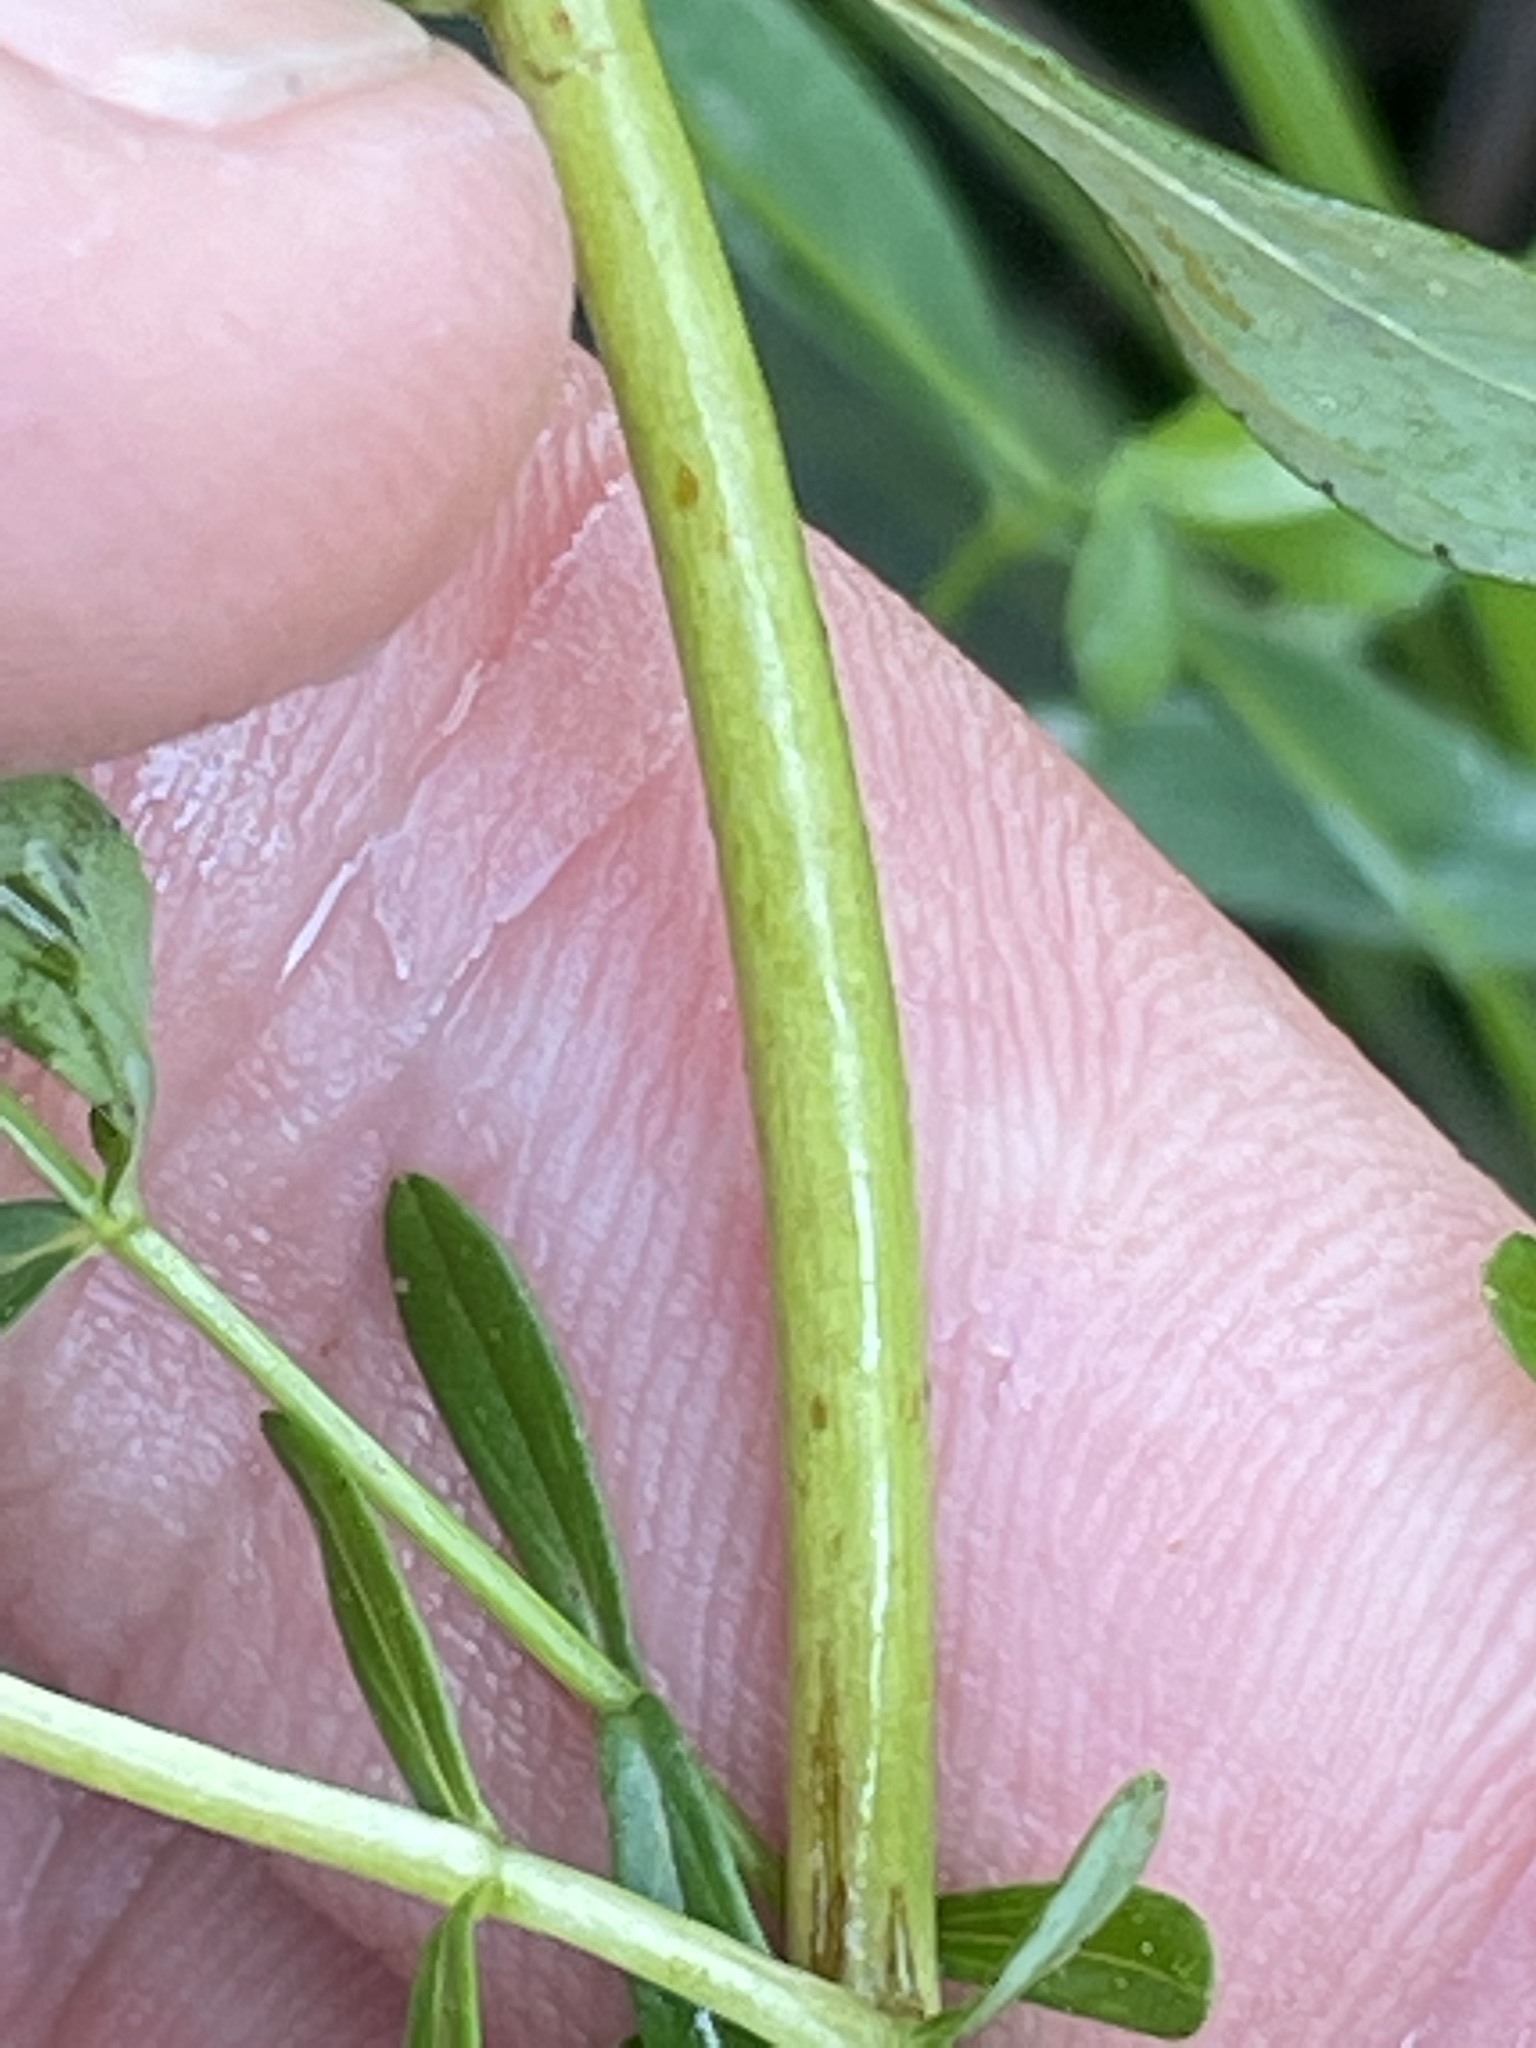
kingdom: Plantae
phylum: Tracheophyta
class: Magnoliopsida
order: Malpighiales
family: Hypericaceae
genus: Hypericum
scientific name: Hypericum perforatum
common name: Common st. johnswort
